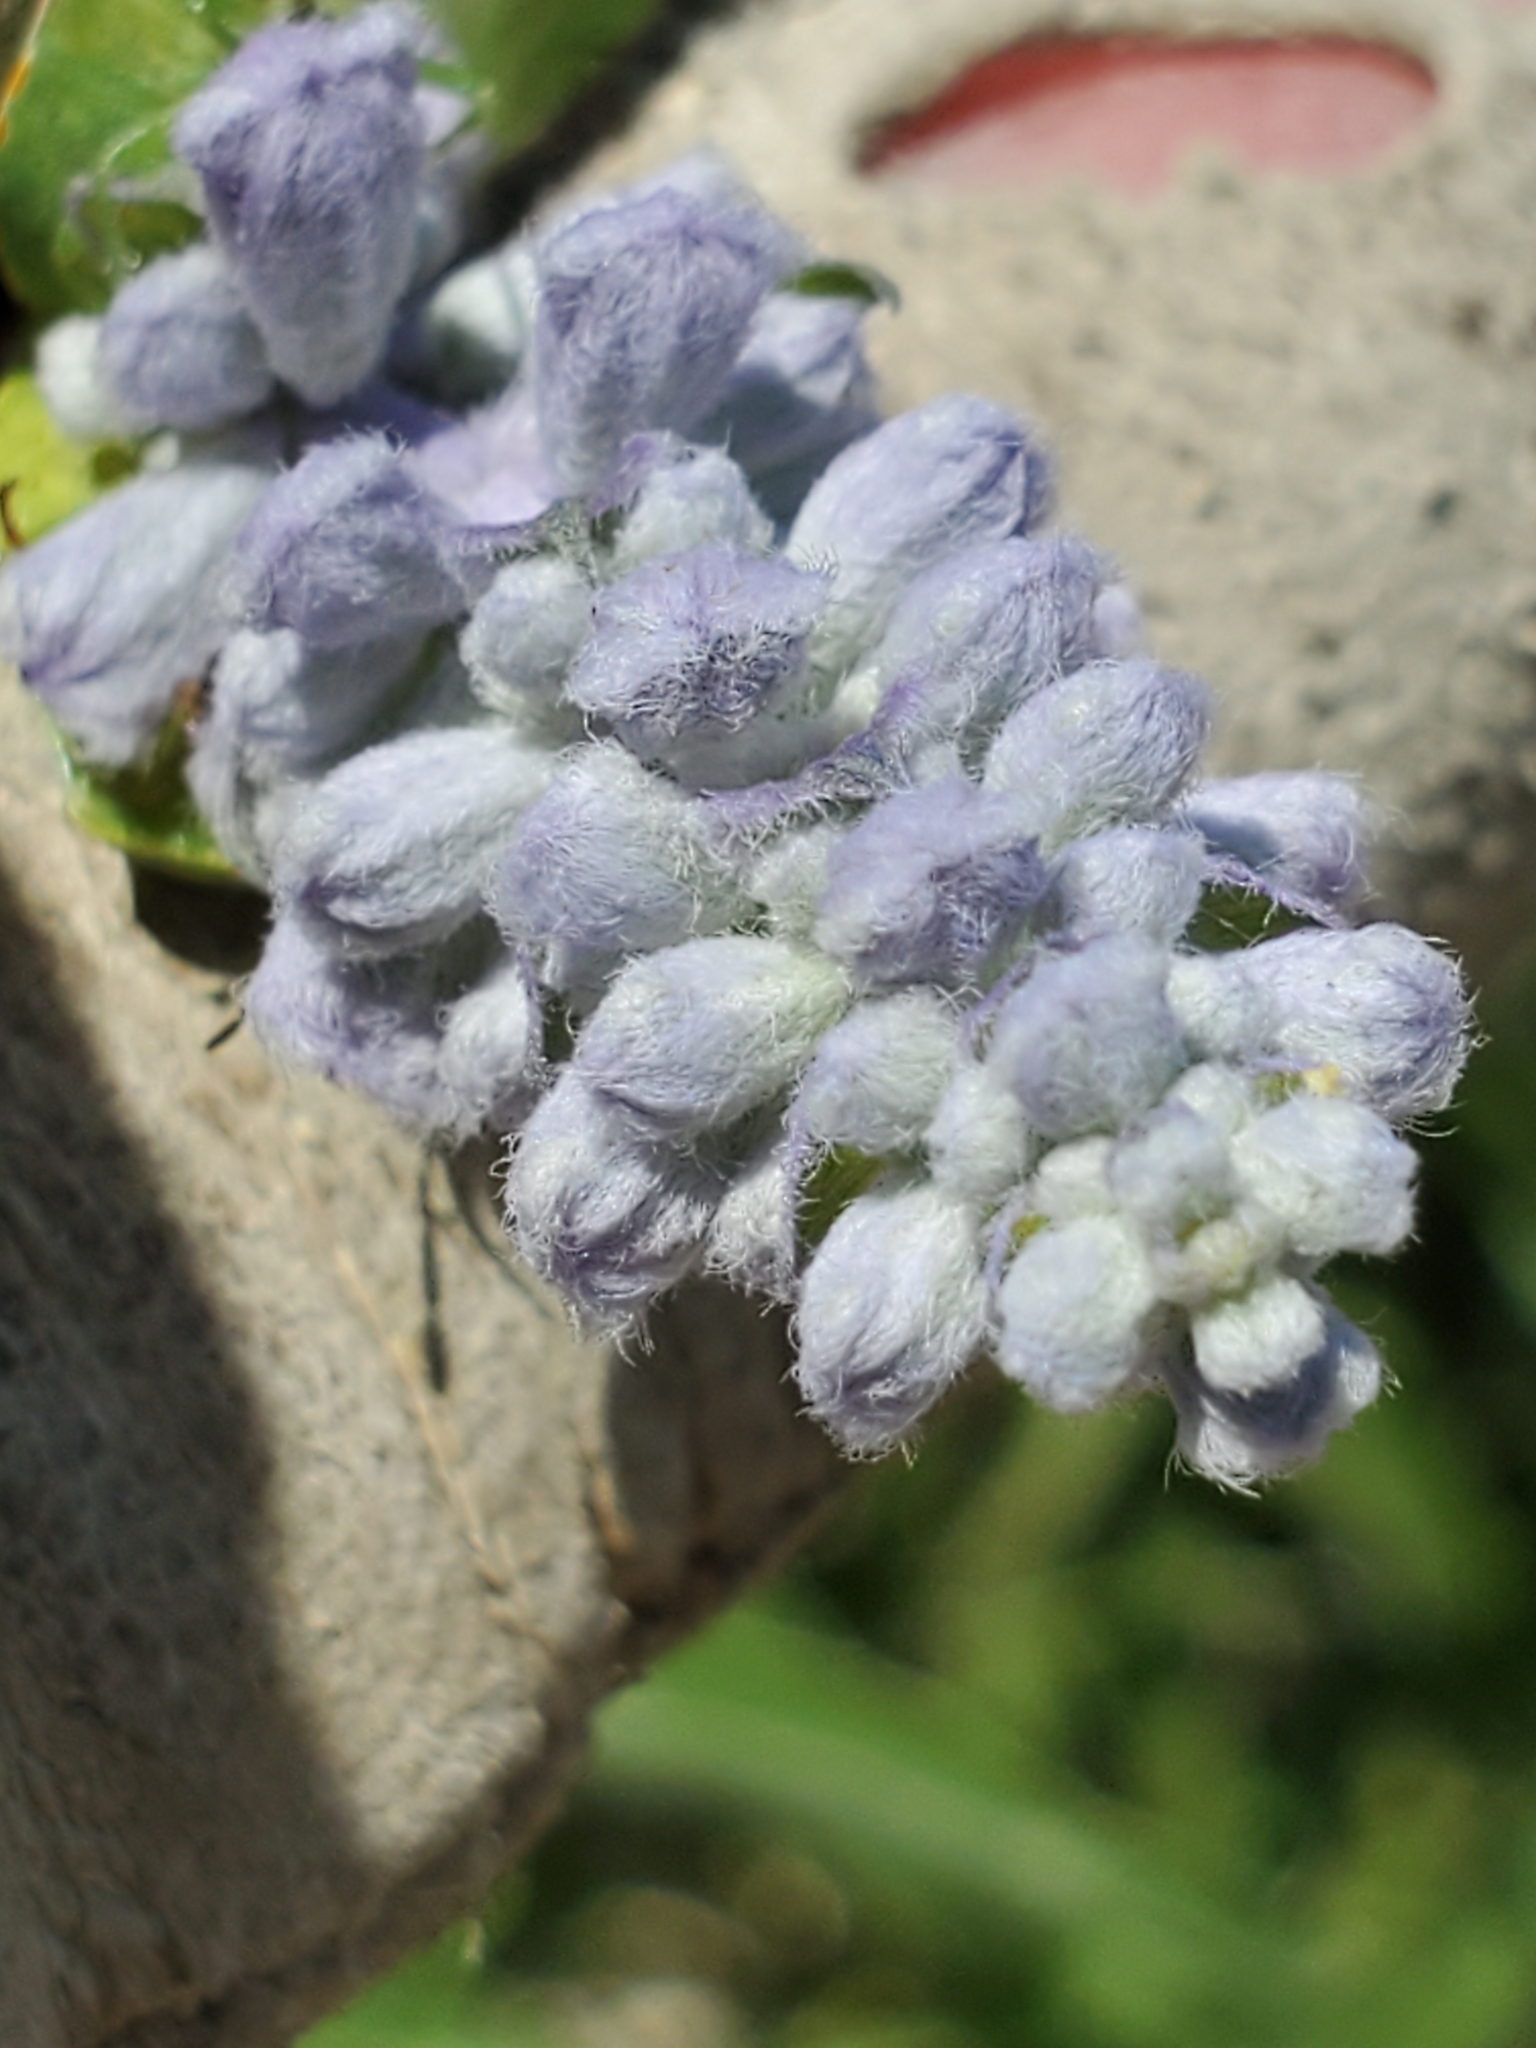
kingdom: Plantae
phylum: Tracheophyta
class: Magnoliopsida
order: Lamiales
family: Lamiaceae
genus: Salvia
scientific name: Salvia farinacea
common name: Mealy sage
